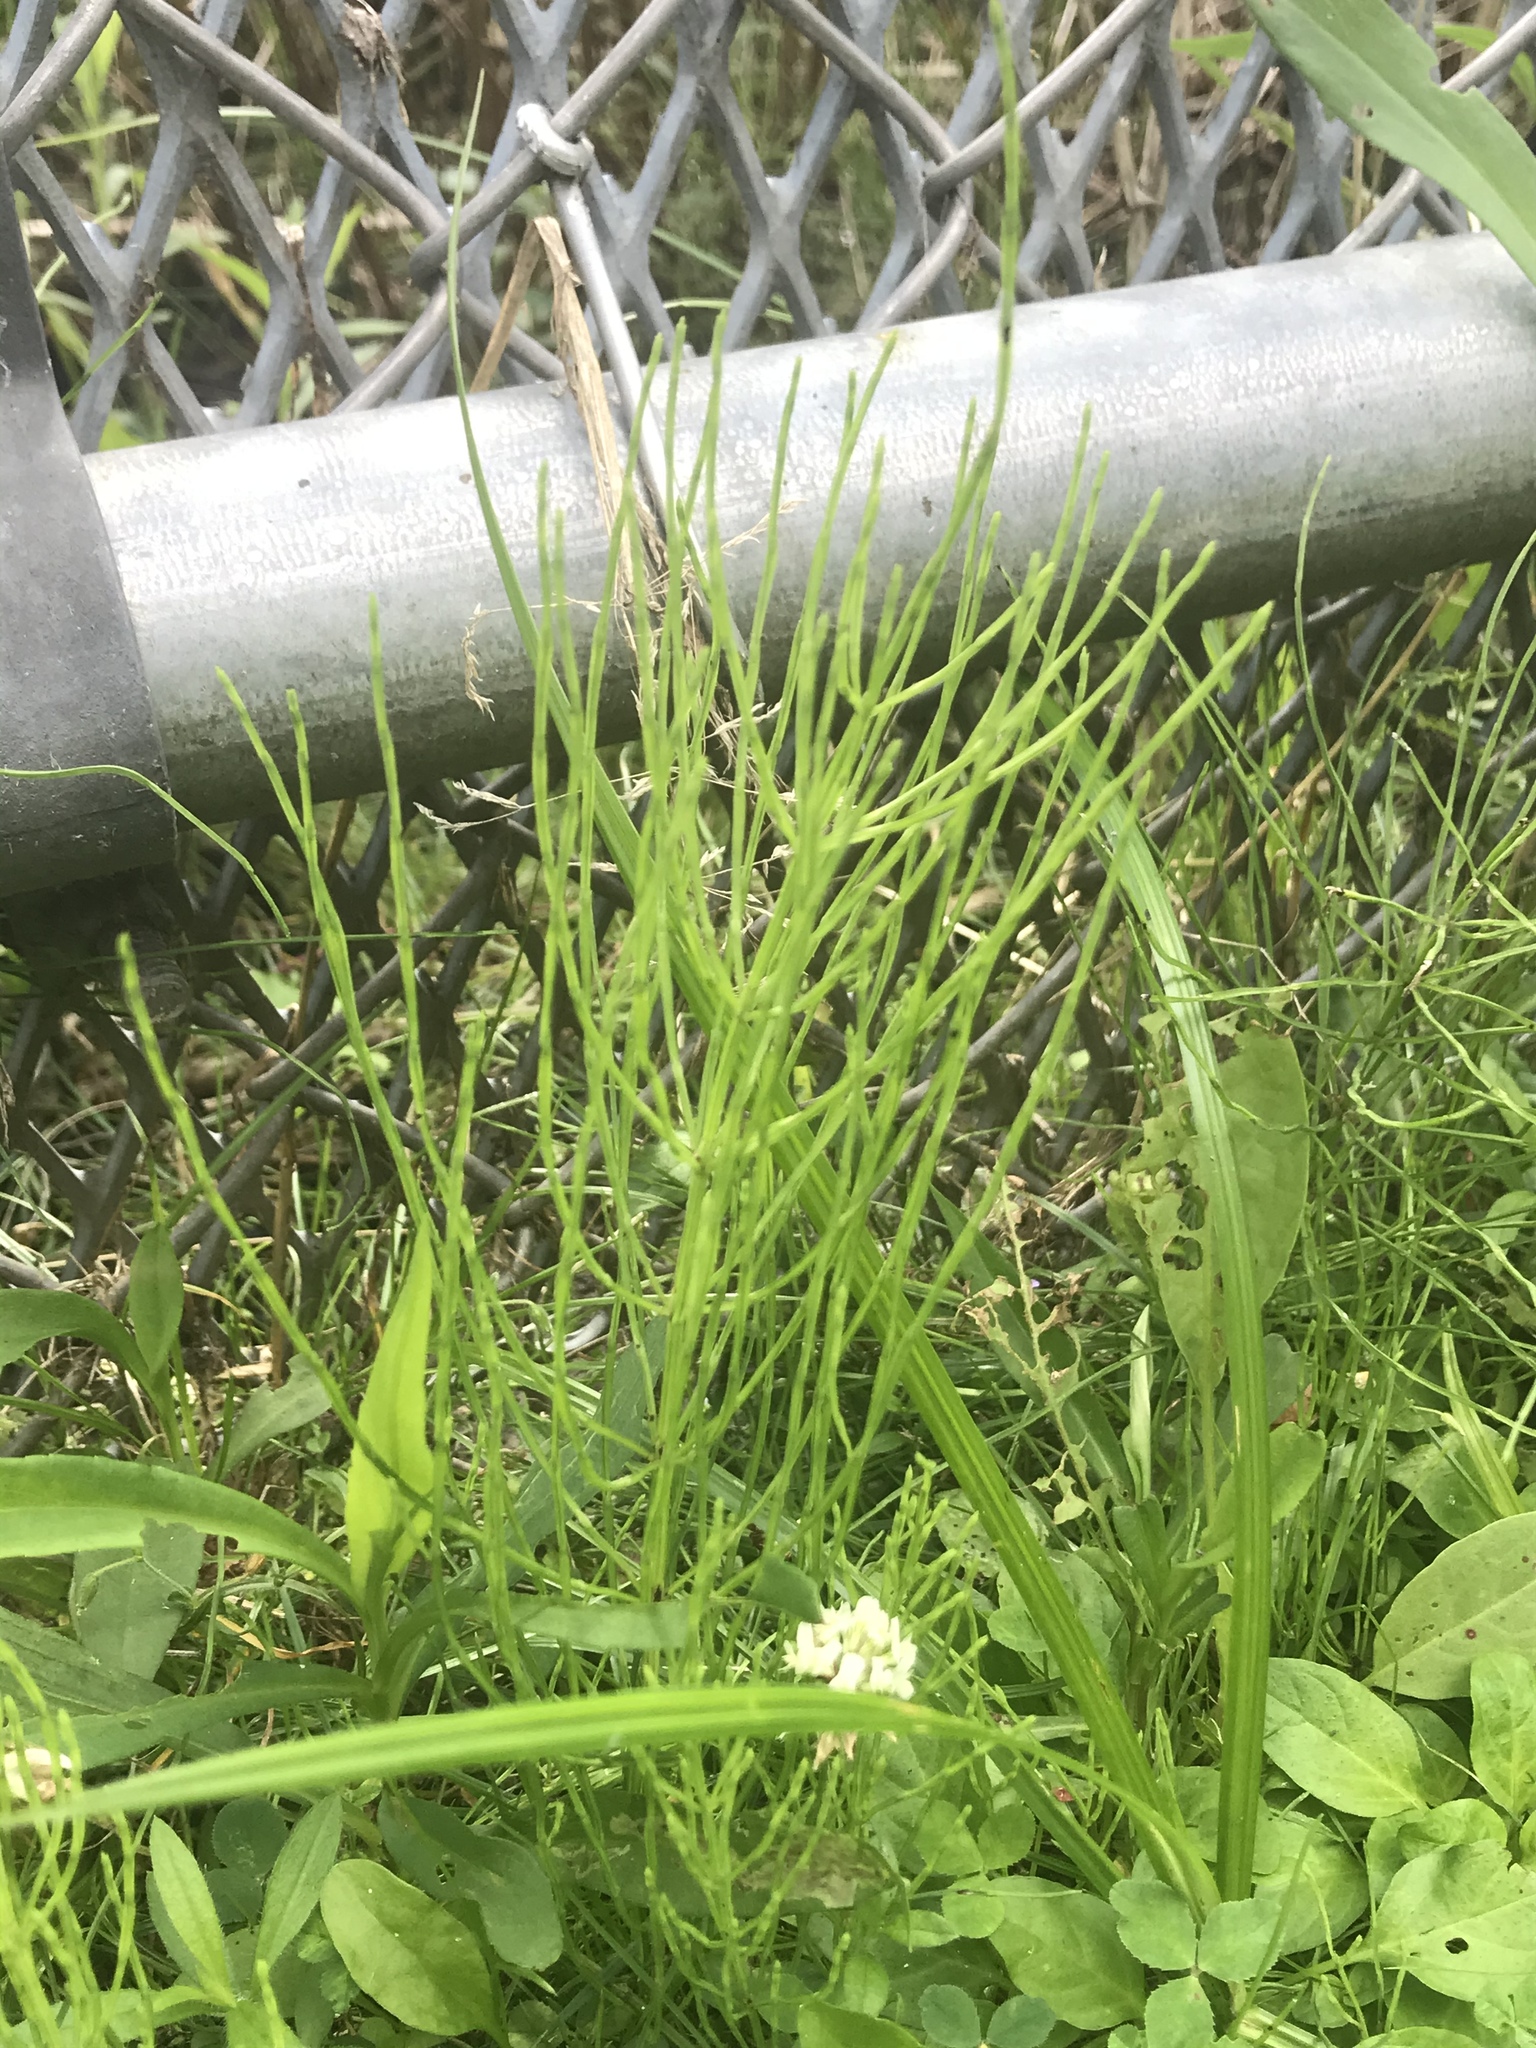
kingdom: Plantae
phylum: Tracheophyta
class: Polypodiopsida
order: Equisetales
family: Equisetaceae
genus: Equisetum
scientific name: Equisetum arvense
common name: Field horsetail
